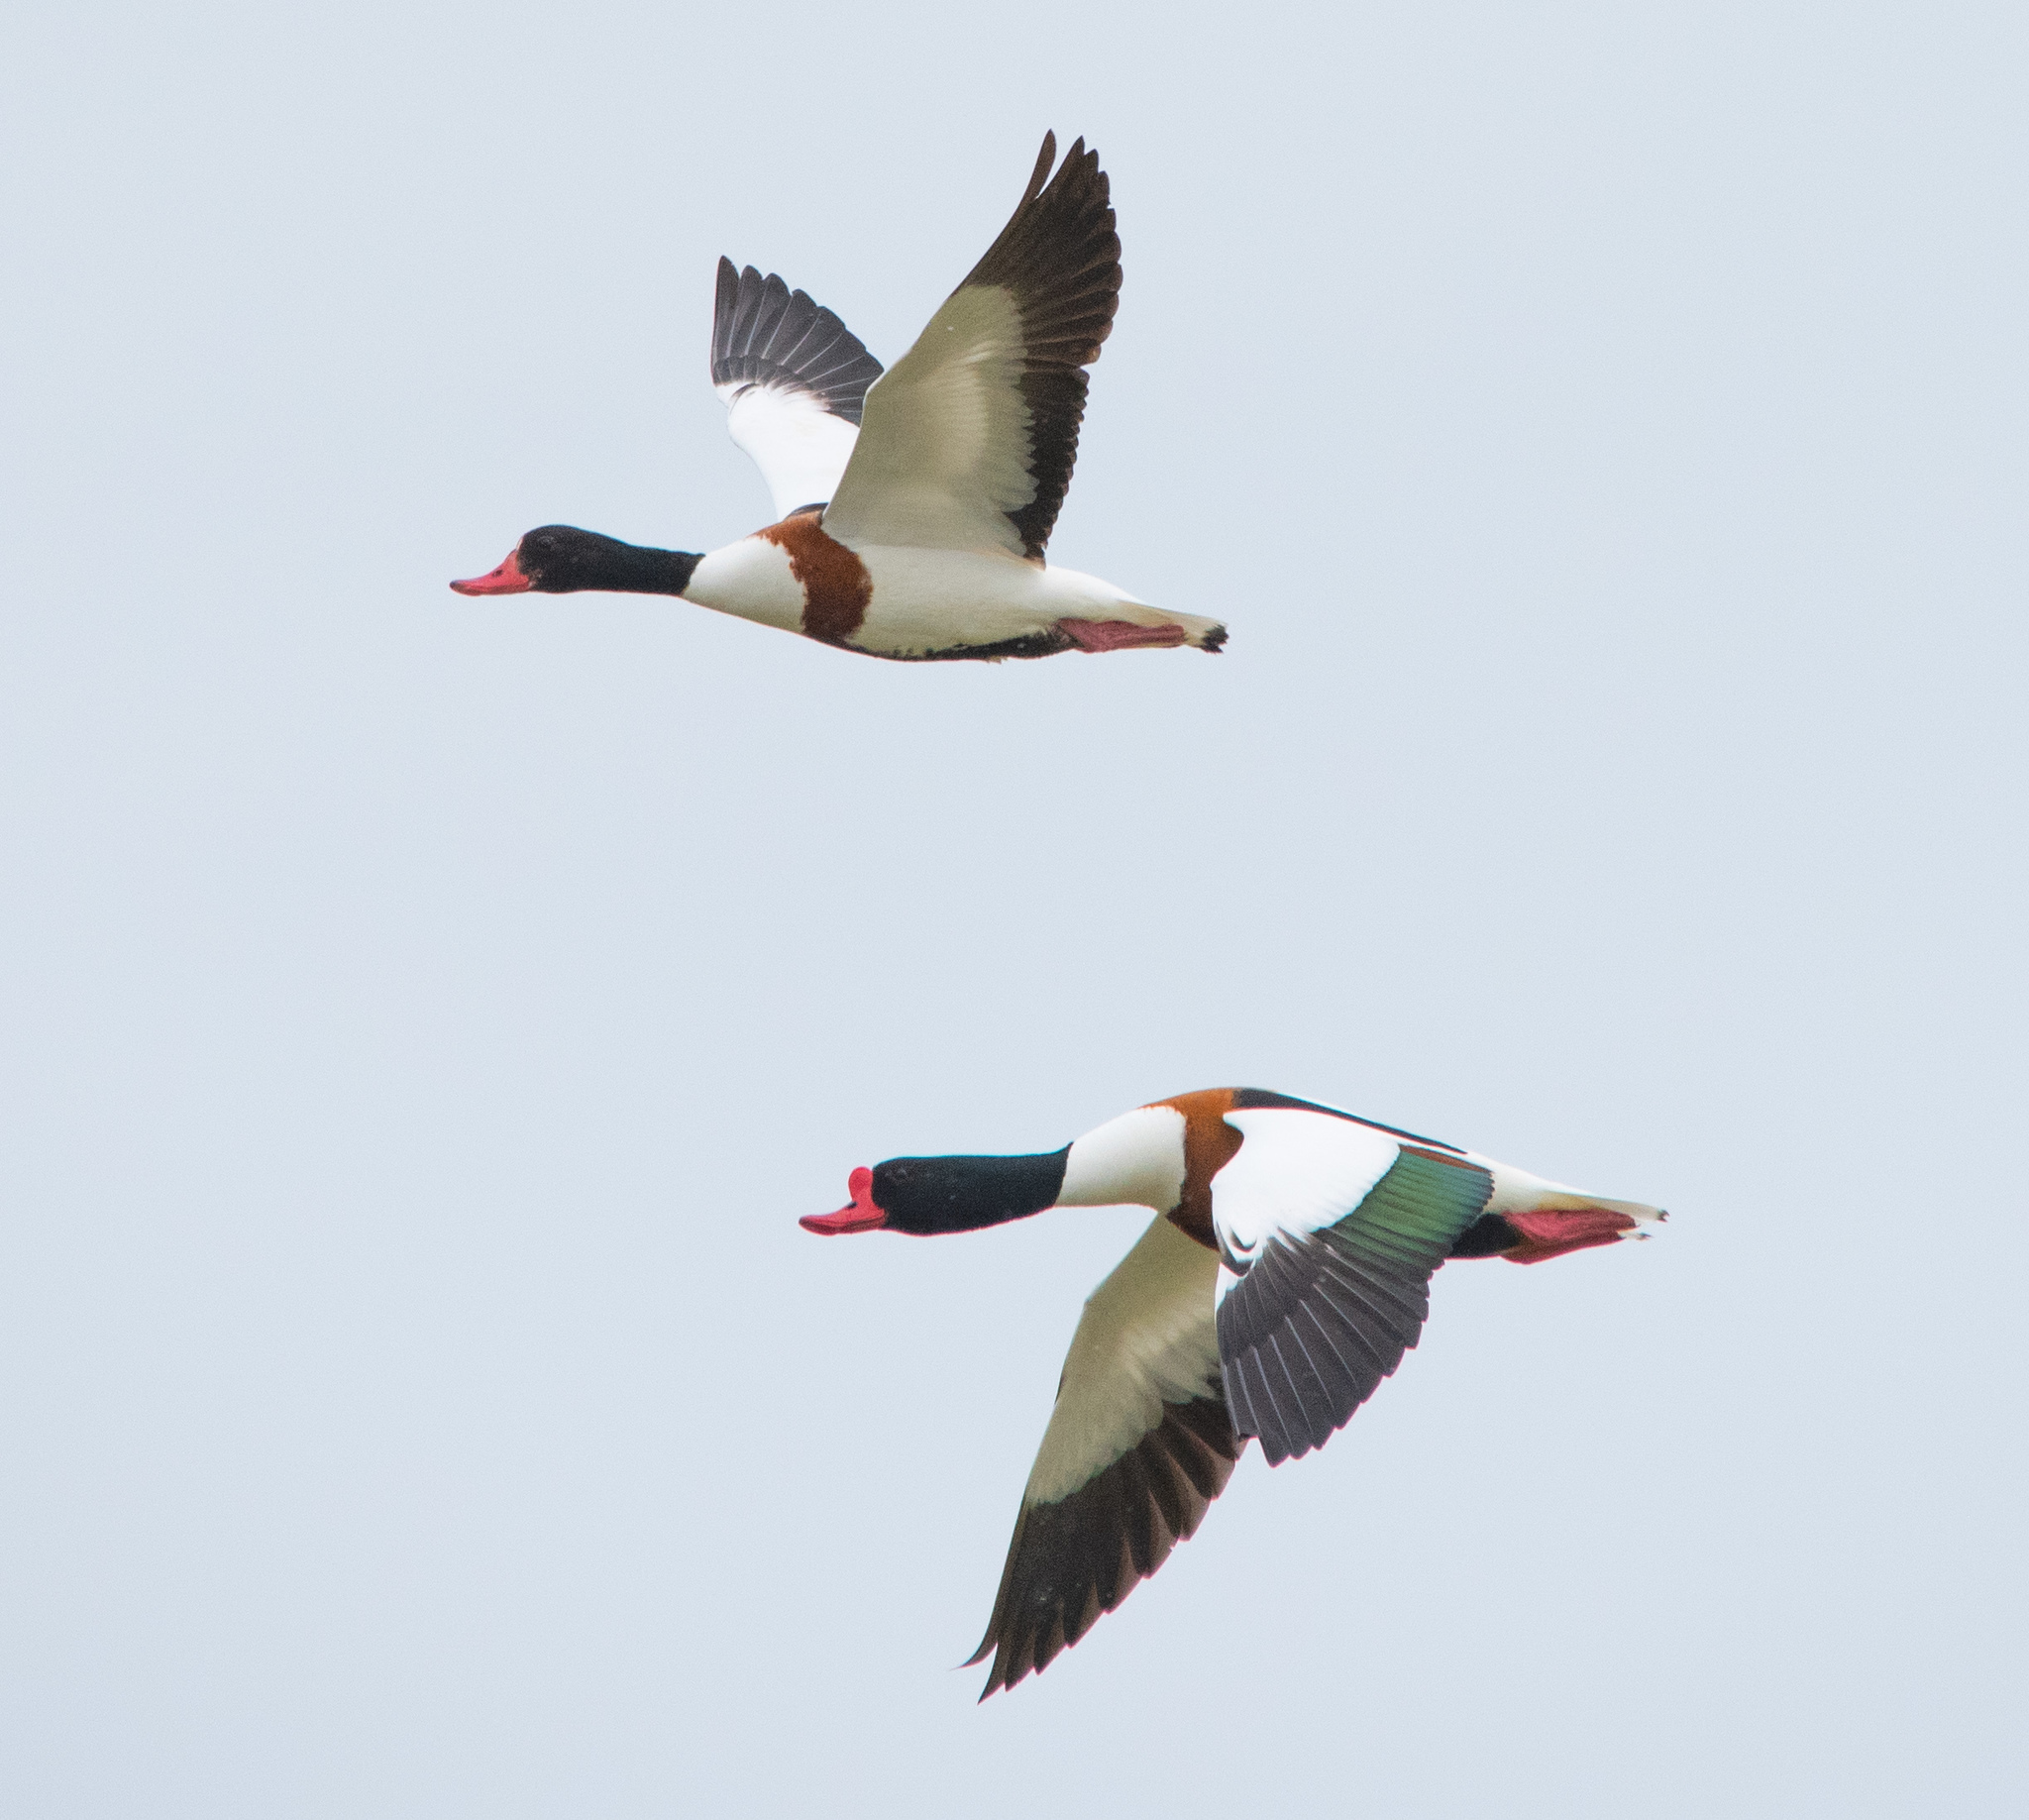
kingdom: Animalia
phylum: Chordata
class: Aves
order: Anseriformes
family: Anatidae
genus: Tadorna
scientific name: Tadorna tadorna
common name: Common shelduck
